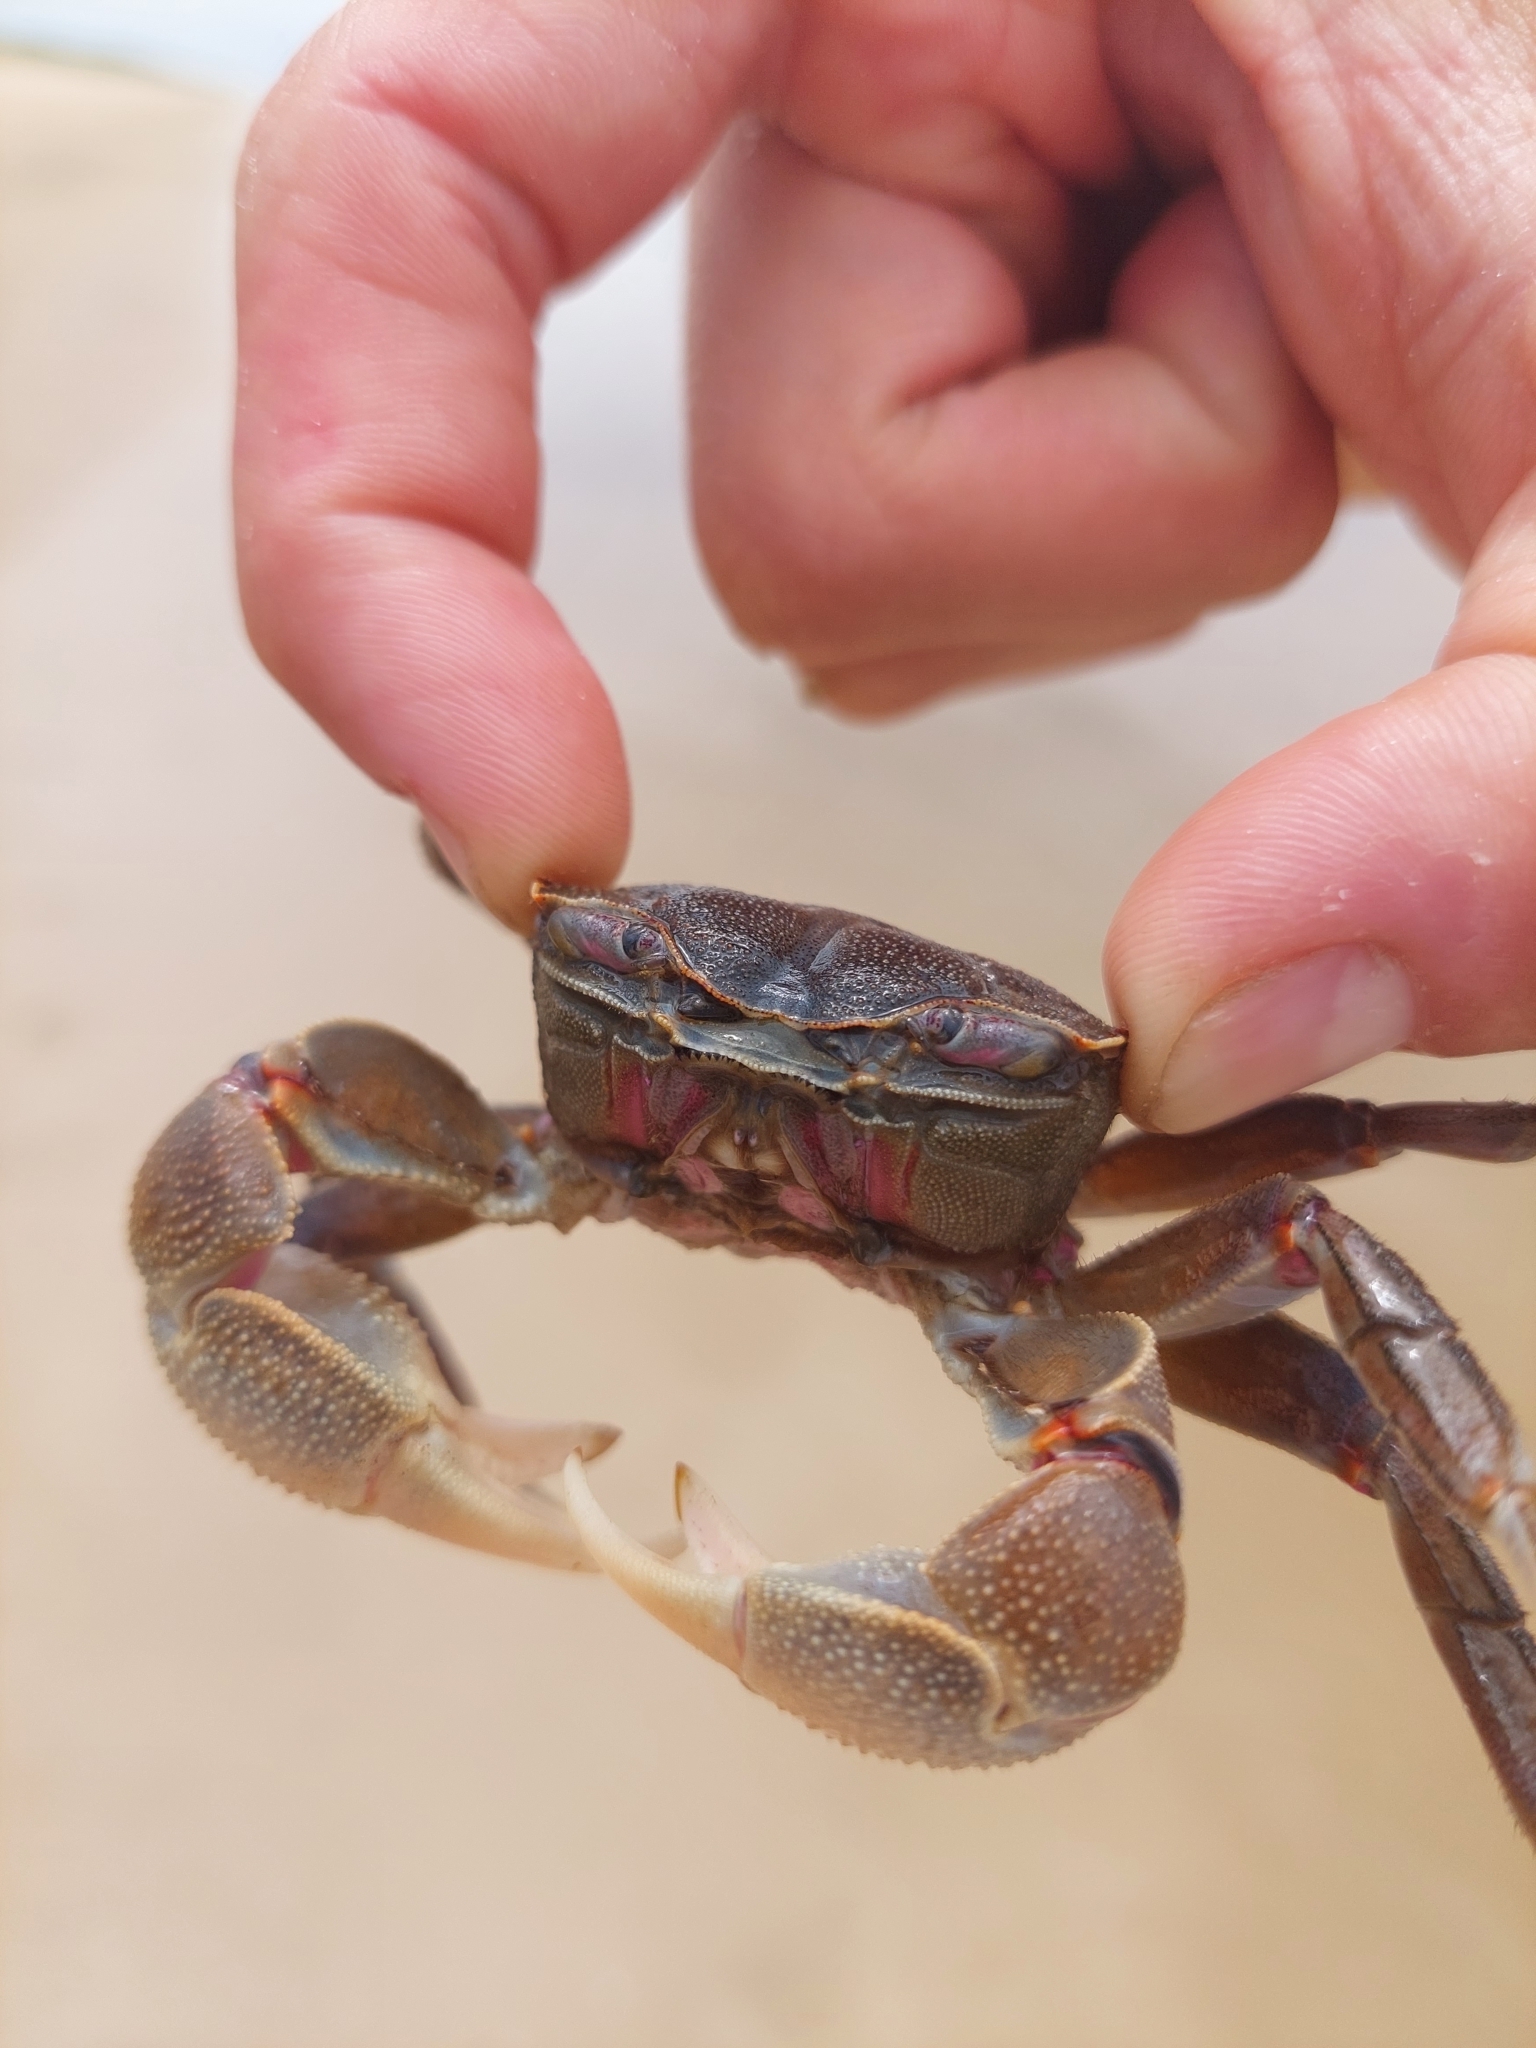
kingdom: Animalia
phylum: Arthropoda
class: Malacostraca
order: Decapoda
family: Varunidae
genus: Neohelice
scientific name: Neohelice granulata
